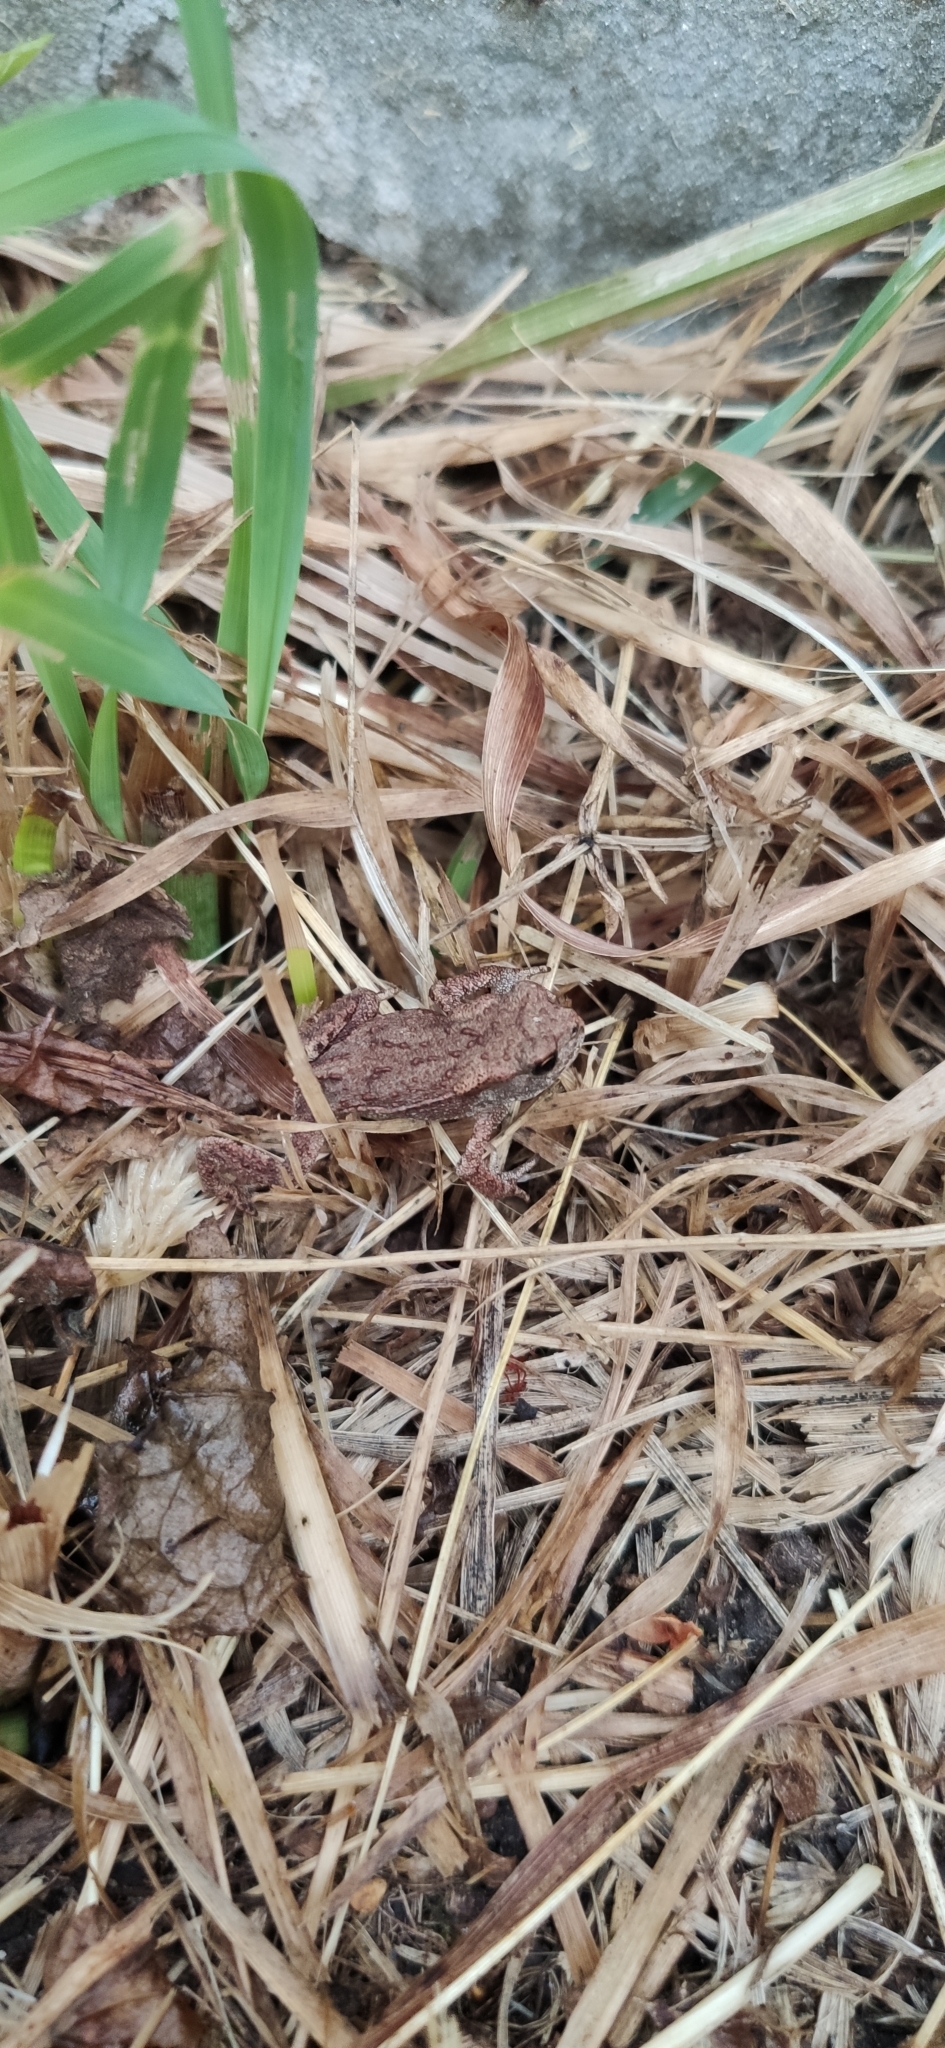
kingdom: Animalia
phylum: Chordata
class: Amphibia
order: Anura
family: Bufonidae
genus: Bufo
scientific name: Bufo bufo
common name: Common toad
